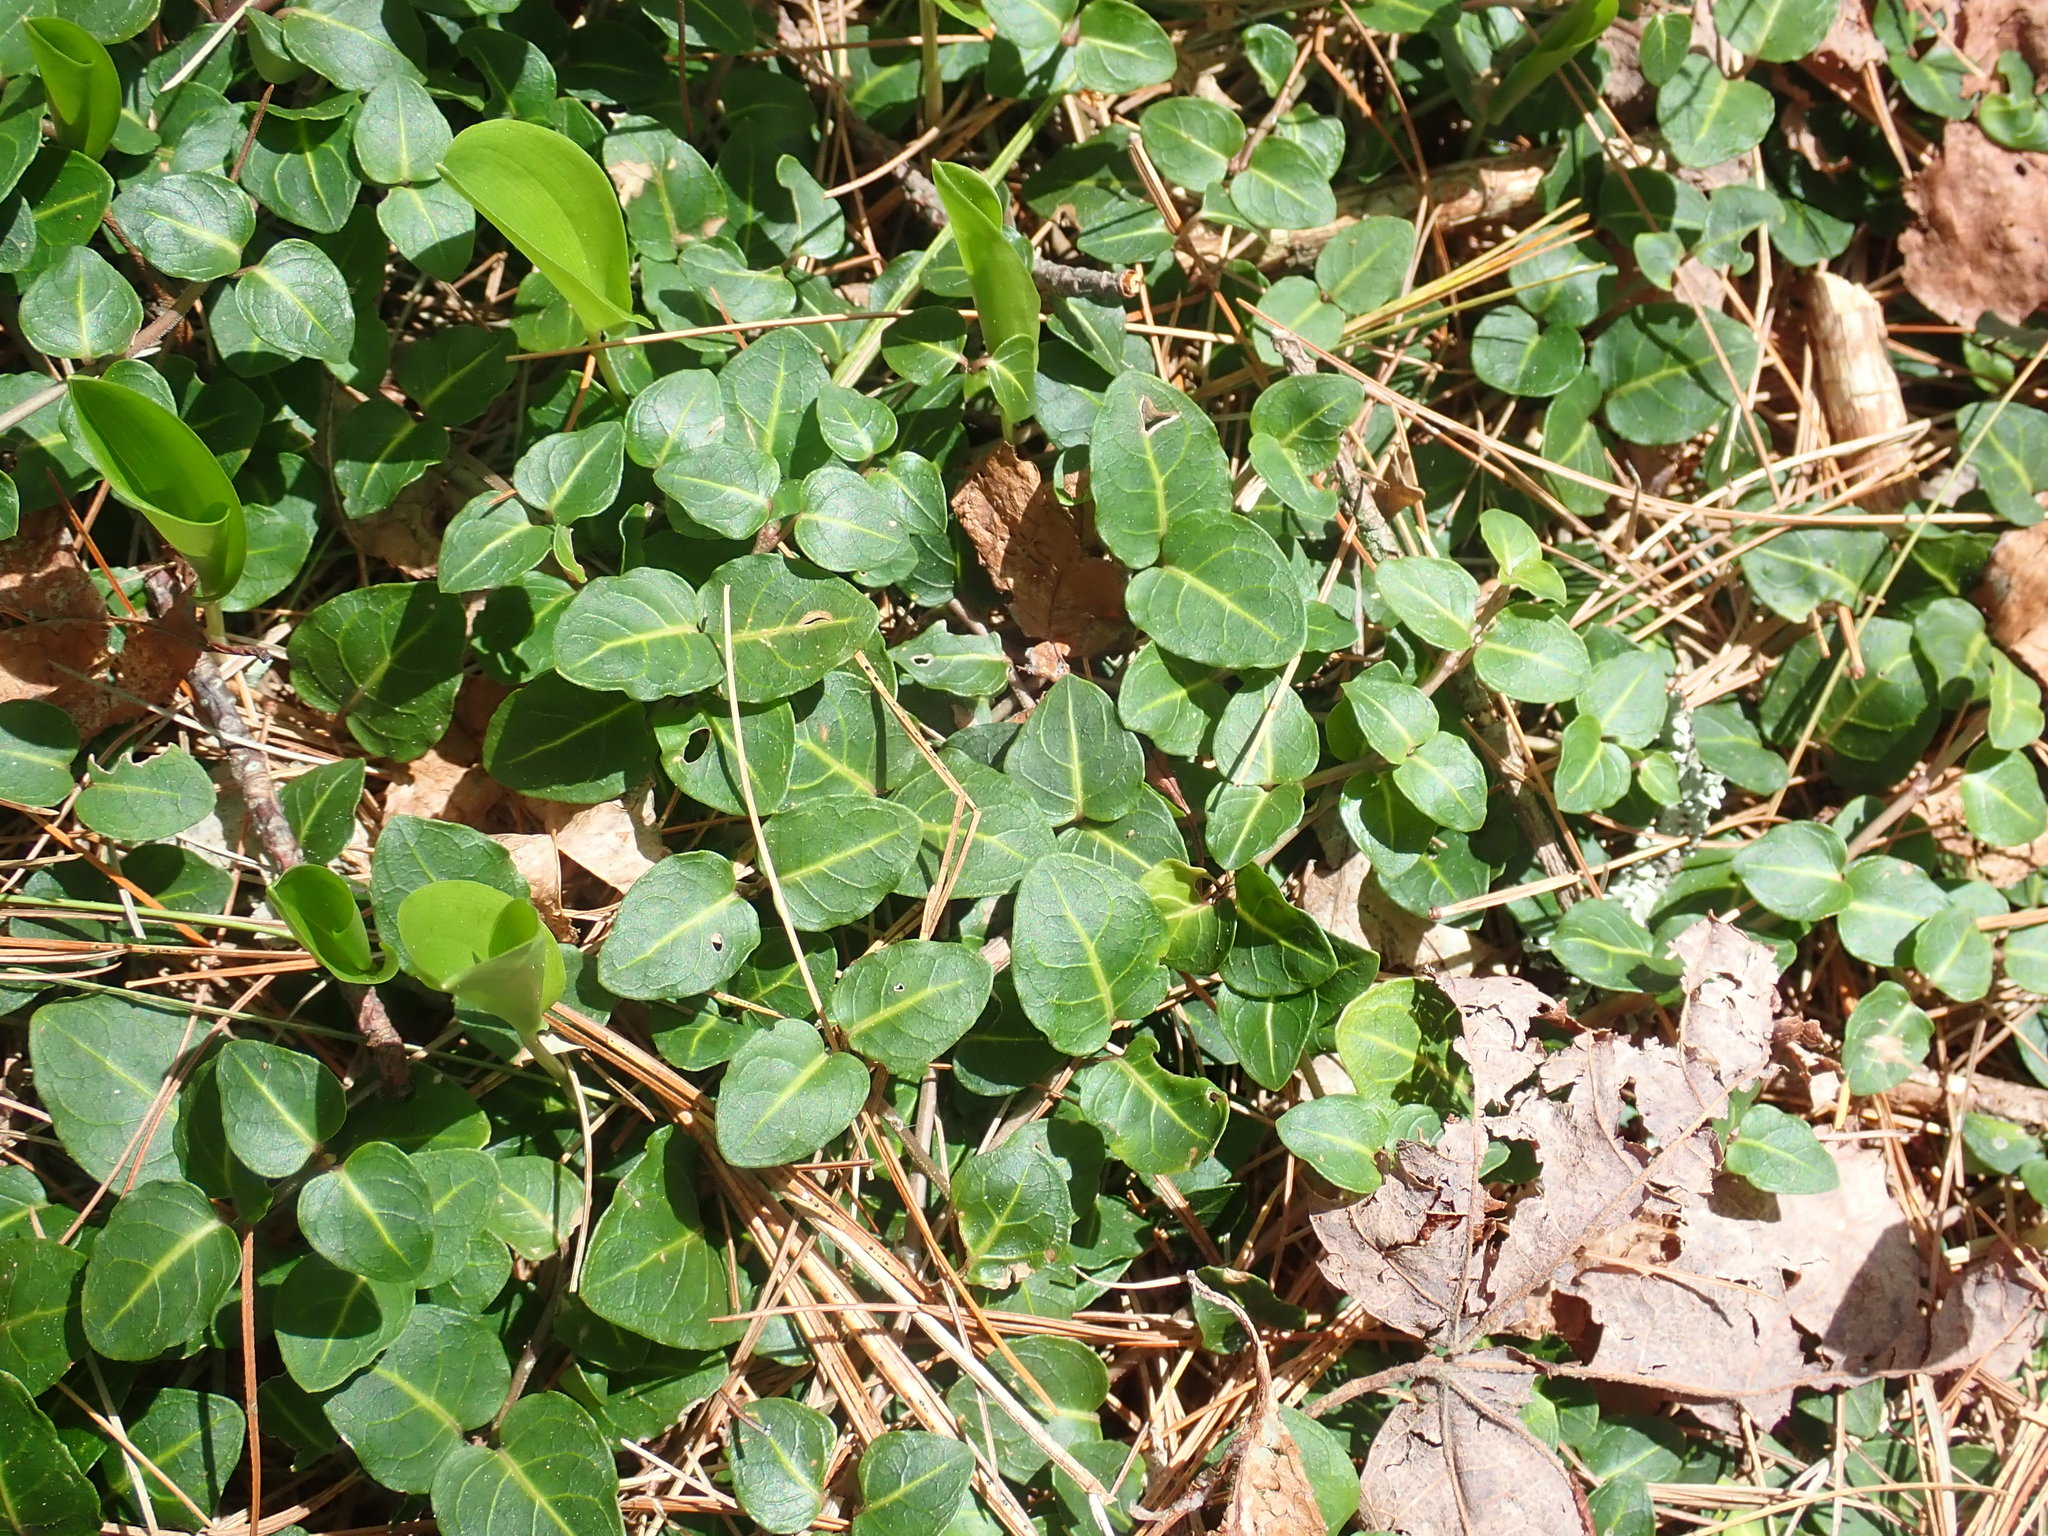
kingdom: Plantae
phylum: Tracheophyta
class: Magnoliopsida
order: Gentianales
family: Rubiaceae
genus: Mitchella
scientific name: Mitchella repens
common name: Partridge-berry
